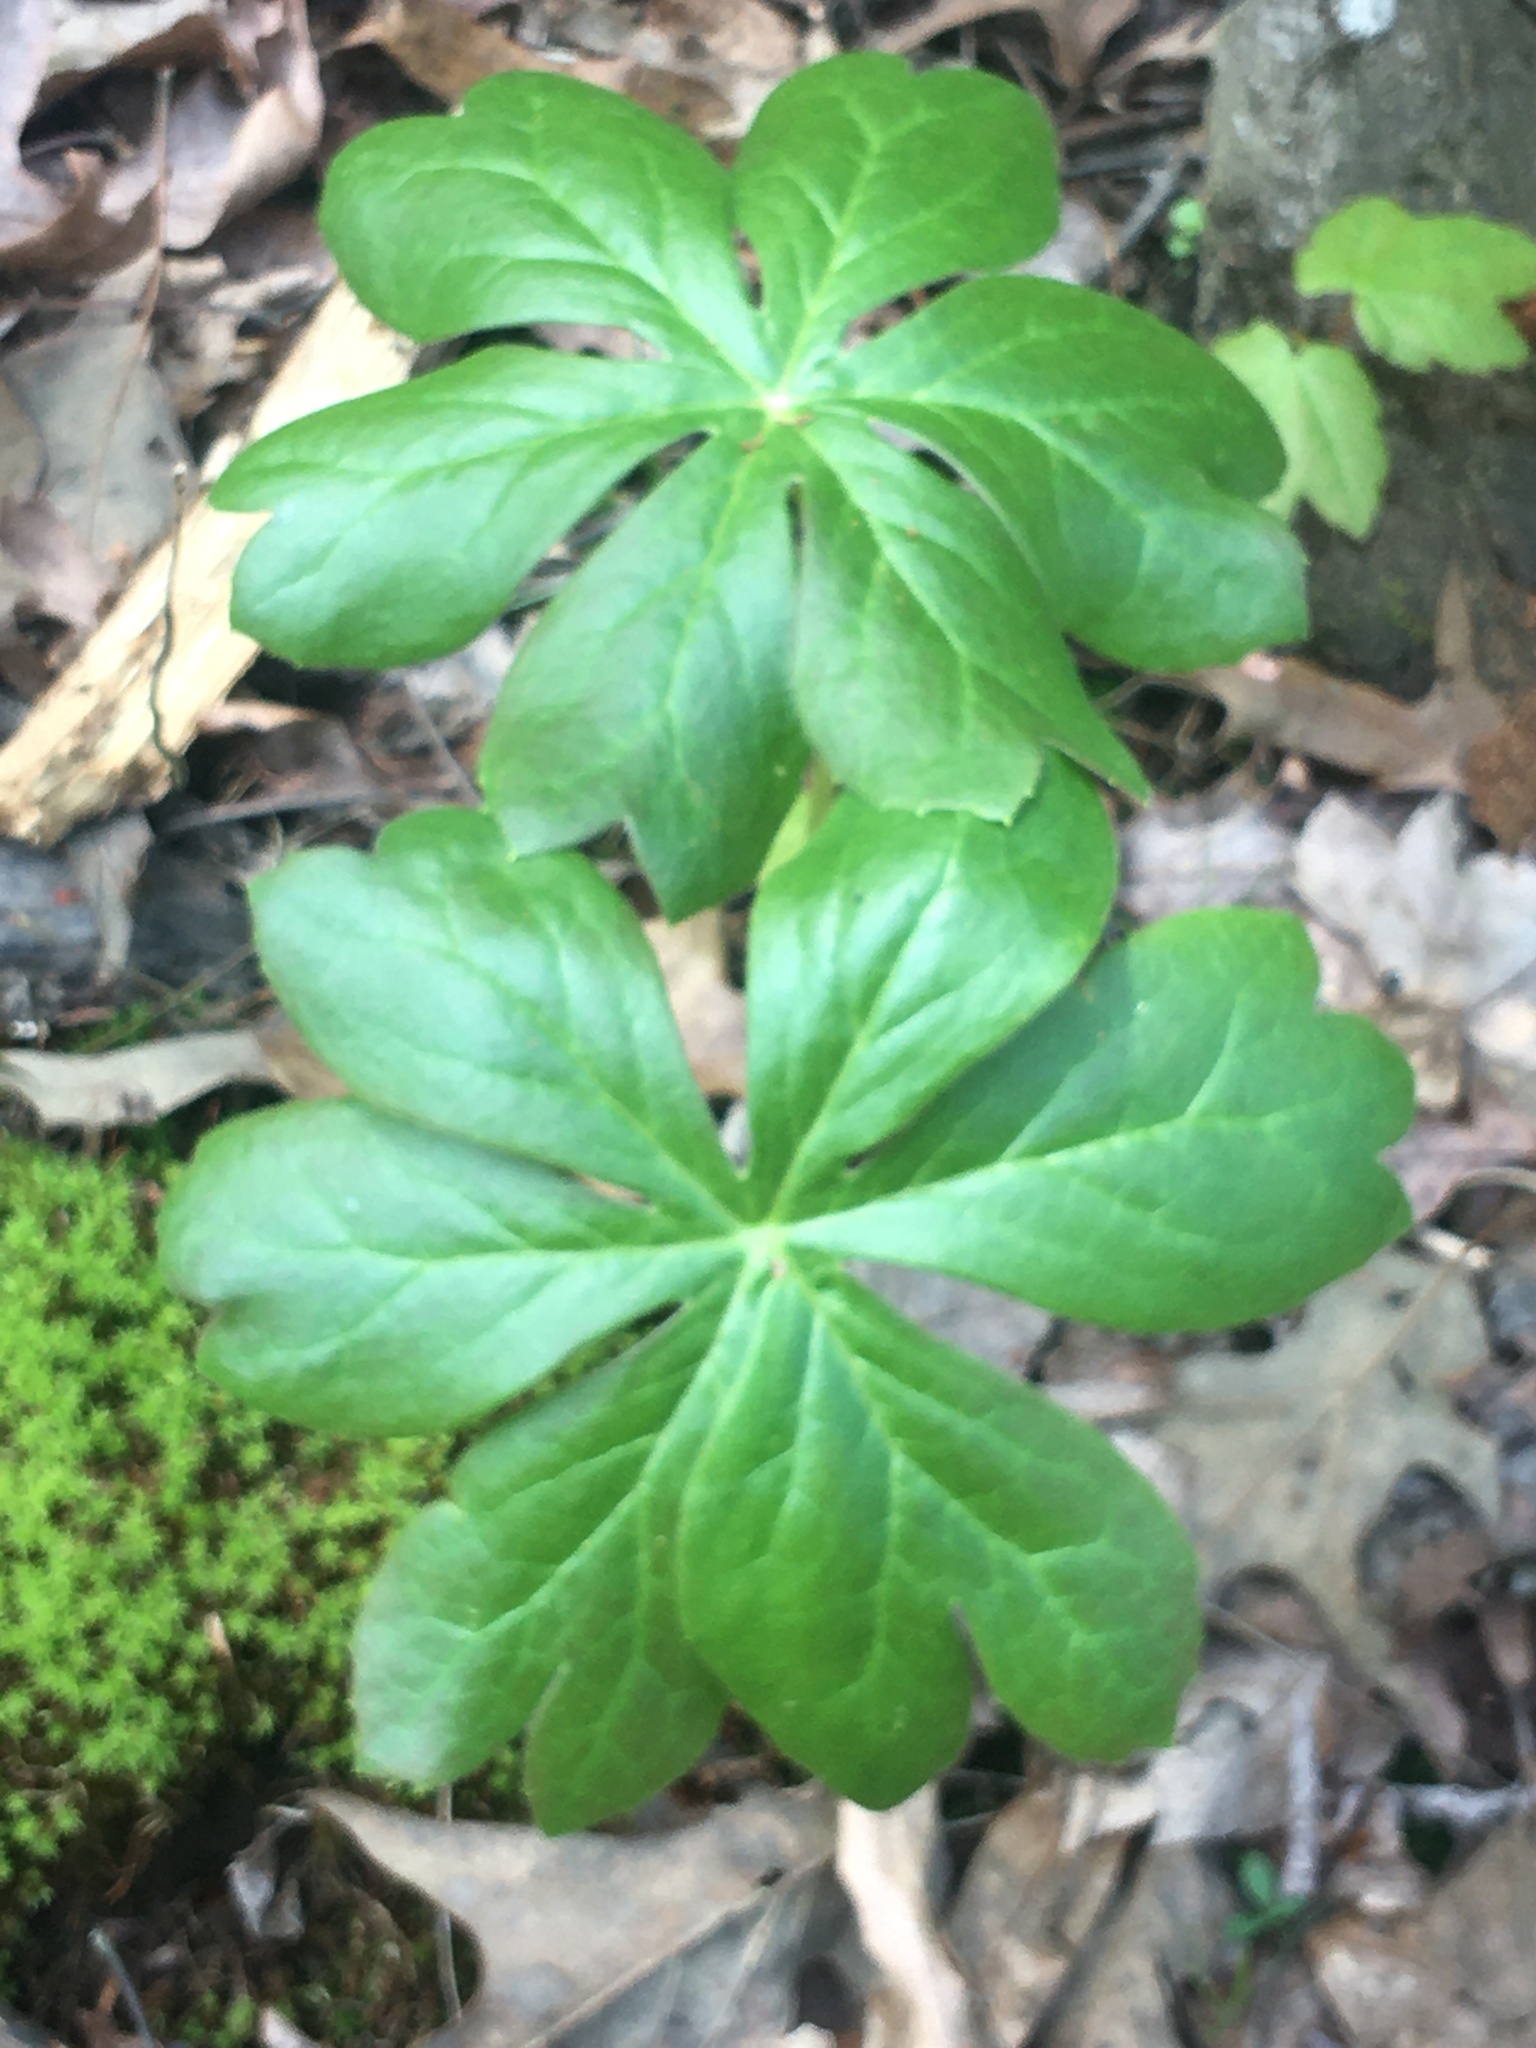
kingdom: Plantae
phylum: Tracheophyta
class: Magnoliopsida
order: Ranunculales
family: Berberidaceae
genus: Podophyllum
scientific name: Podophyllum peltatum
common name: Wild mandrake
